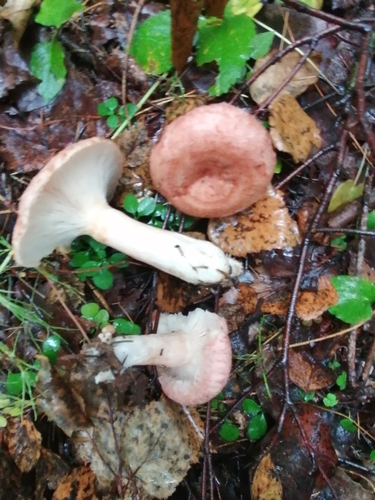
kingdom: Fungi
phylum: Basidiomycota
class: Agaricomycetes
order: Russulales
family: Russulaceae
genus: Lactarius
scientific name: Lactarius torminosus
